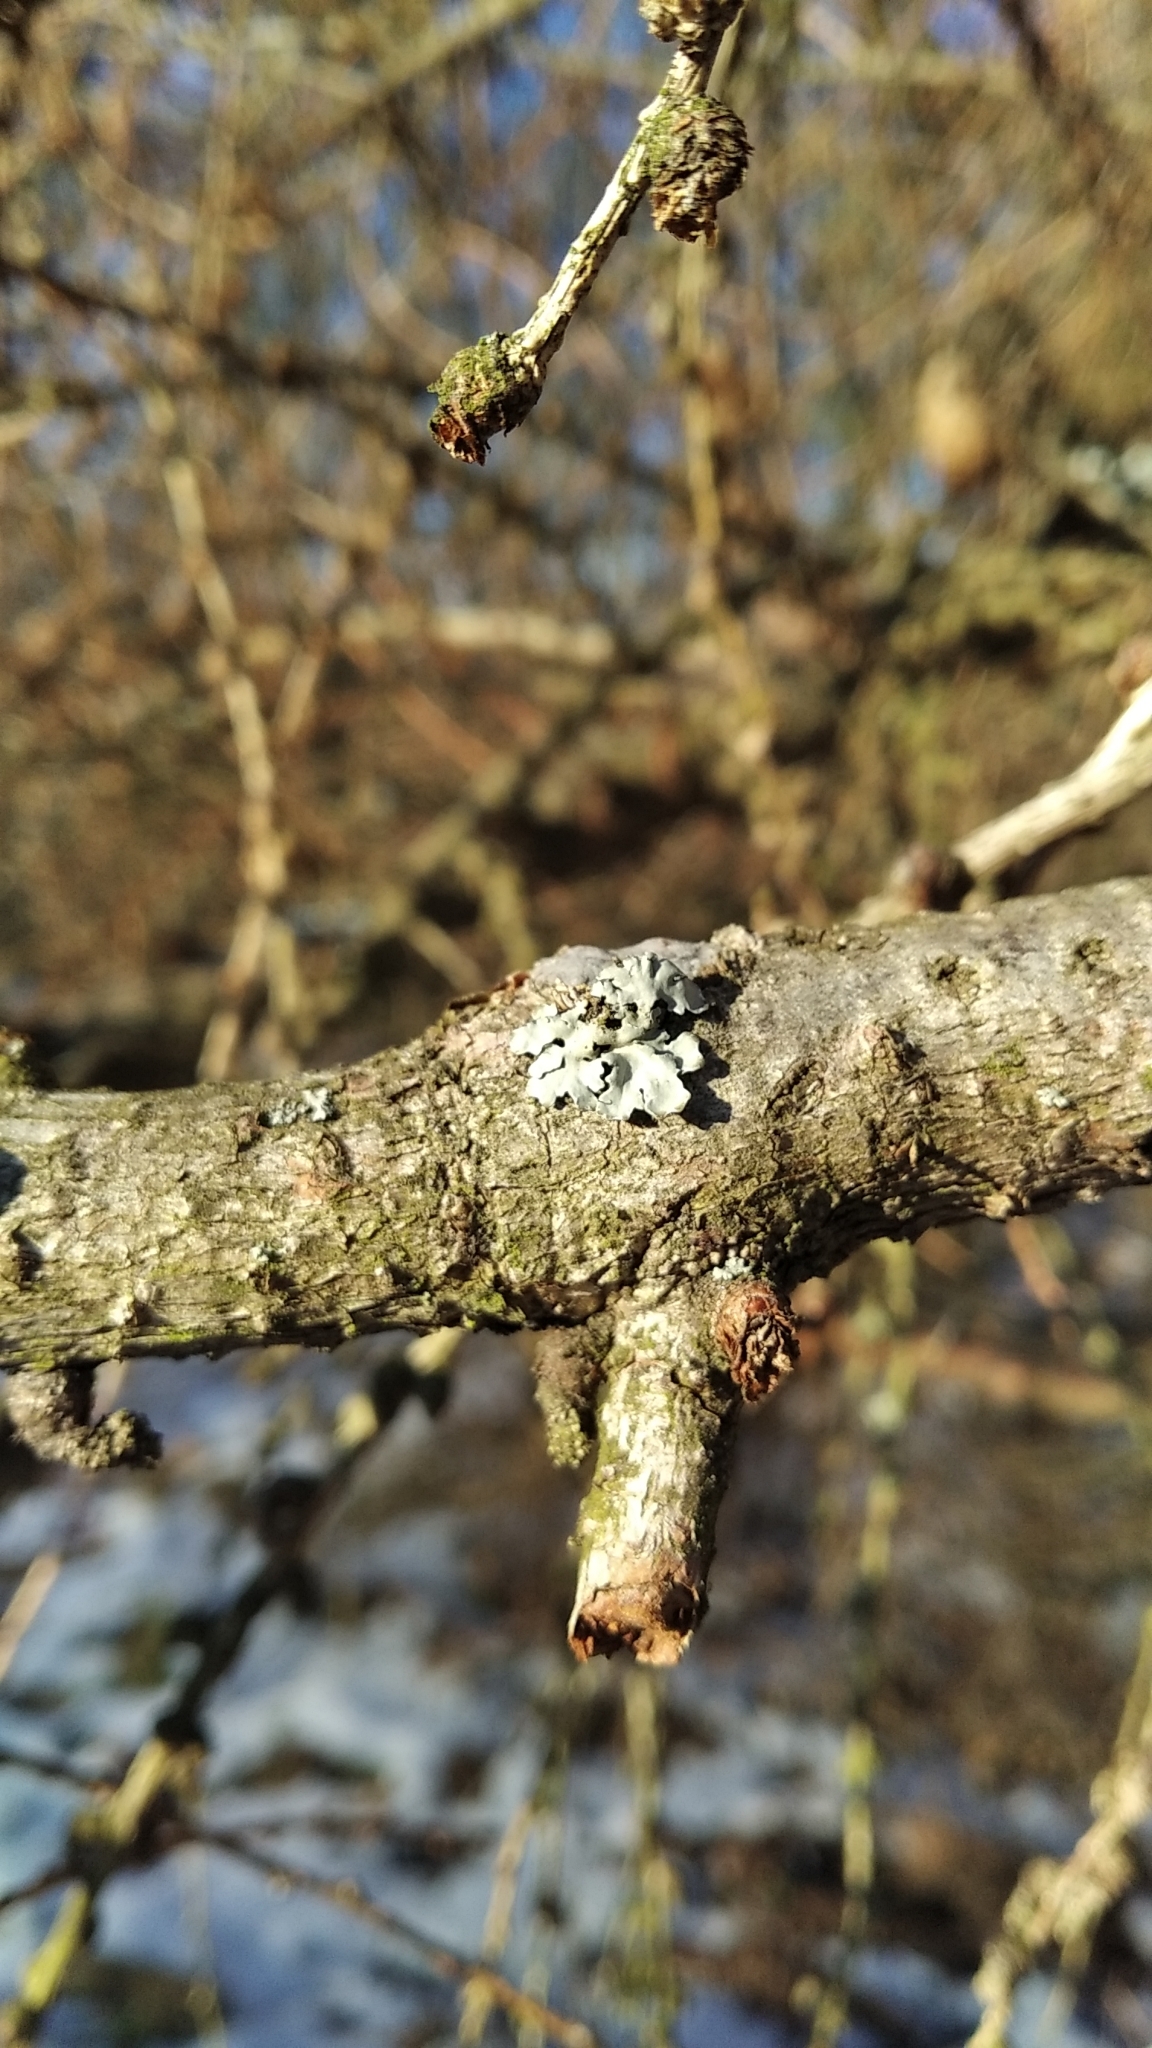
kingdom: Fungi
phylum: Ascomycota
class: Lecanoromycetes
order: Lecanorales
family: Parmeliaceae
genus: Parmelia
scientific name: Parmelia sulcata
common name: Netted shield lichen
